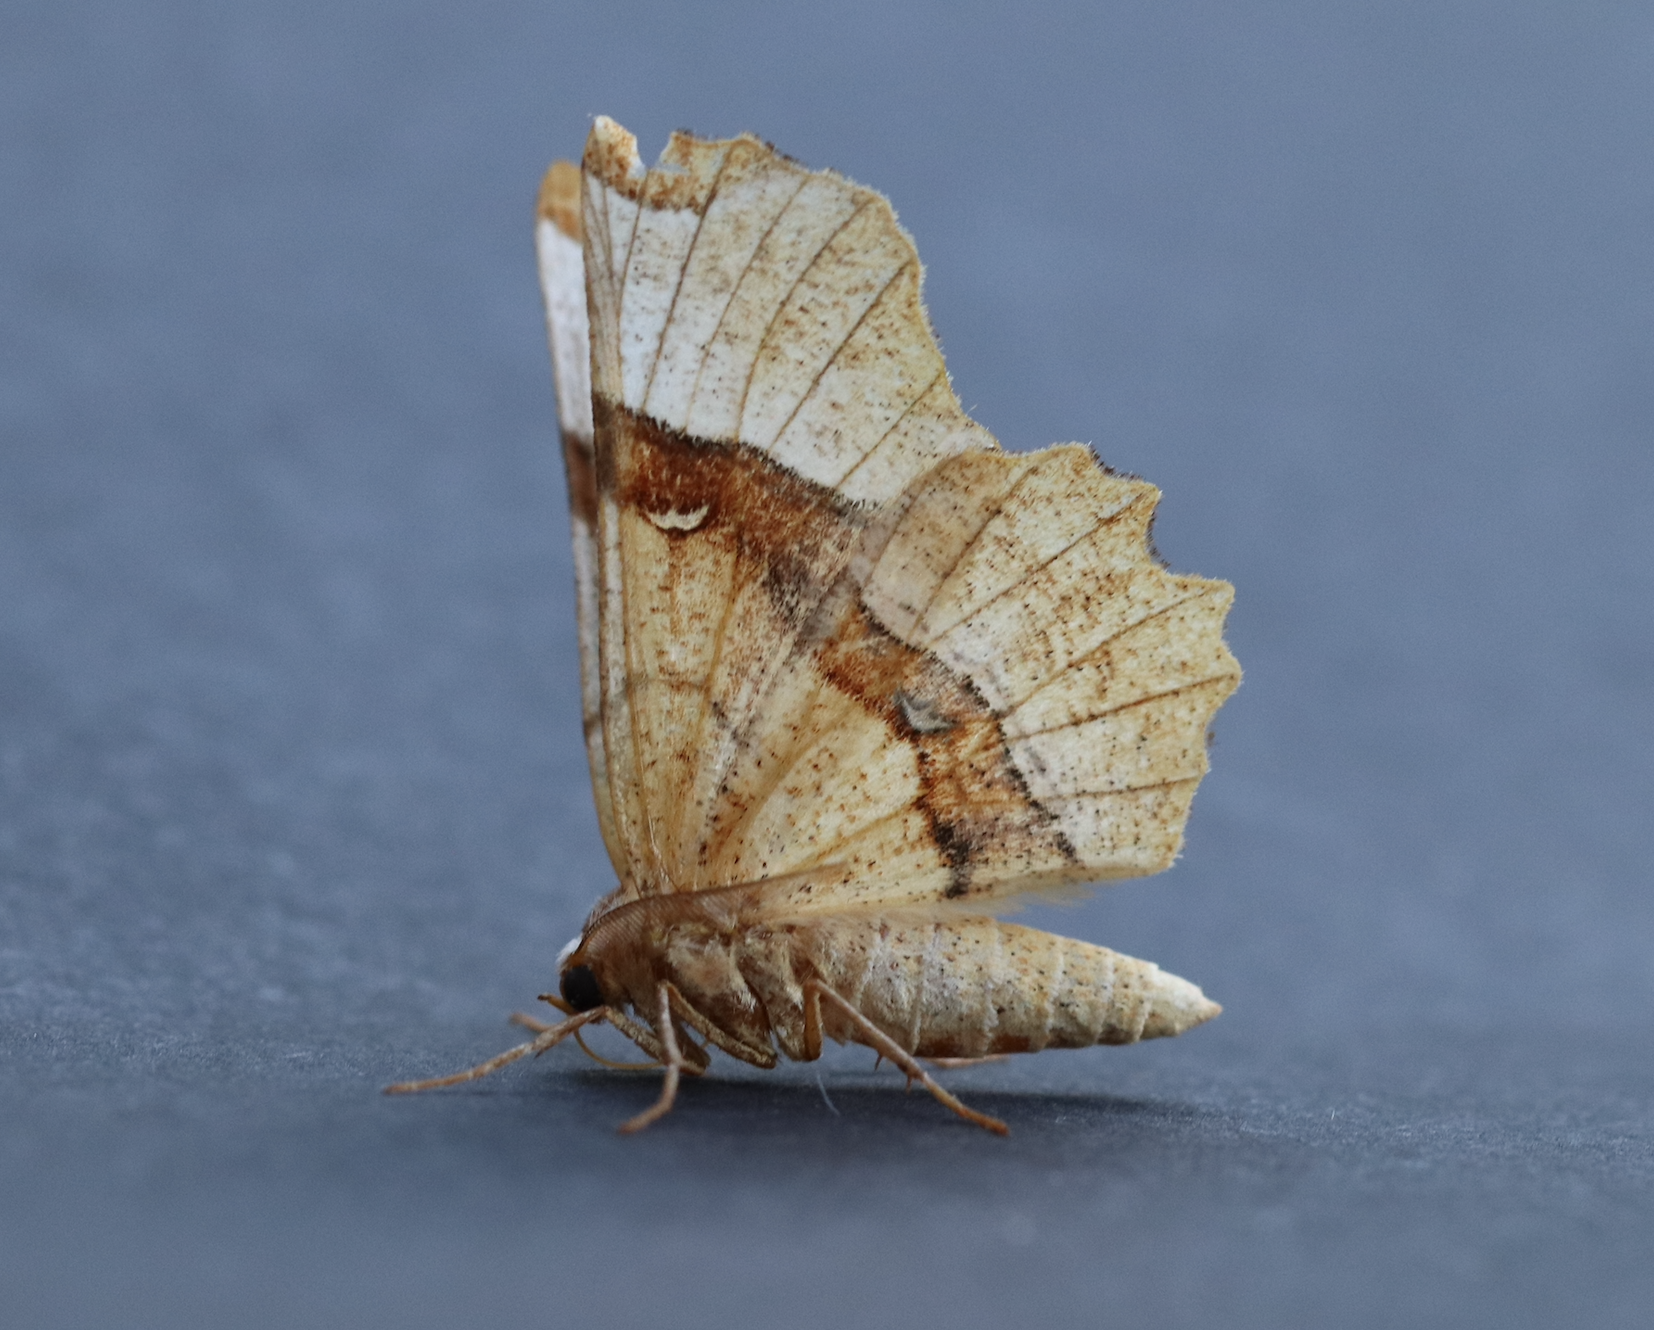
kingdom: Animalia
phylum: Arthropoda
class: Insecta
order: Lepidoptera
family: Geometridae
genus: Selenia
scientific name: Selenia lunularia
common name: Lunar thorn
